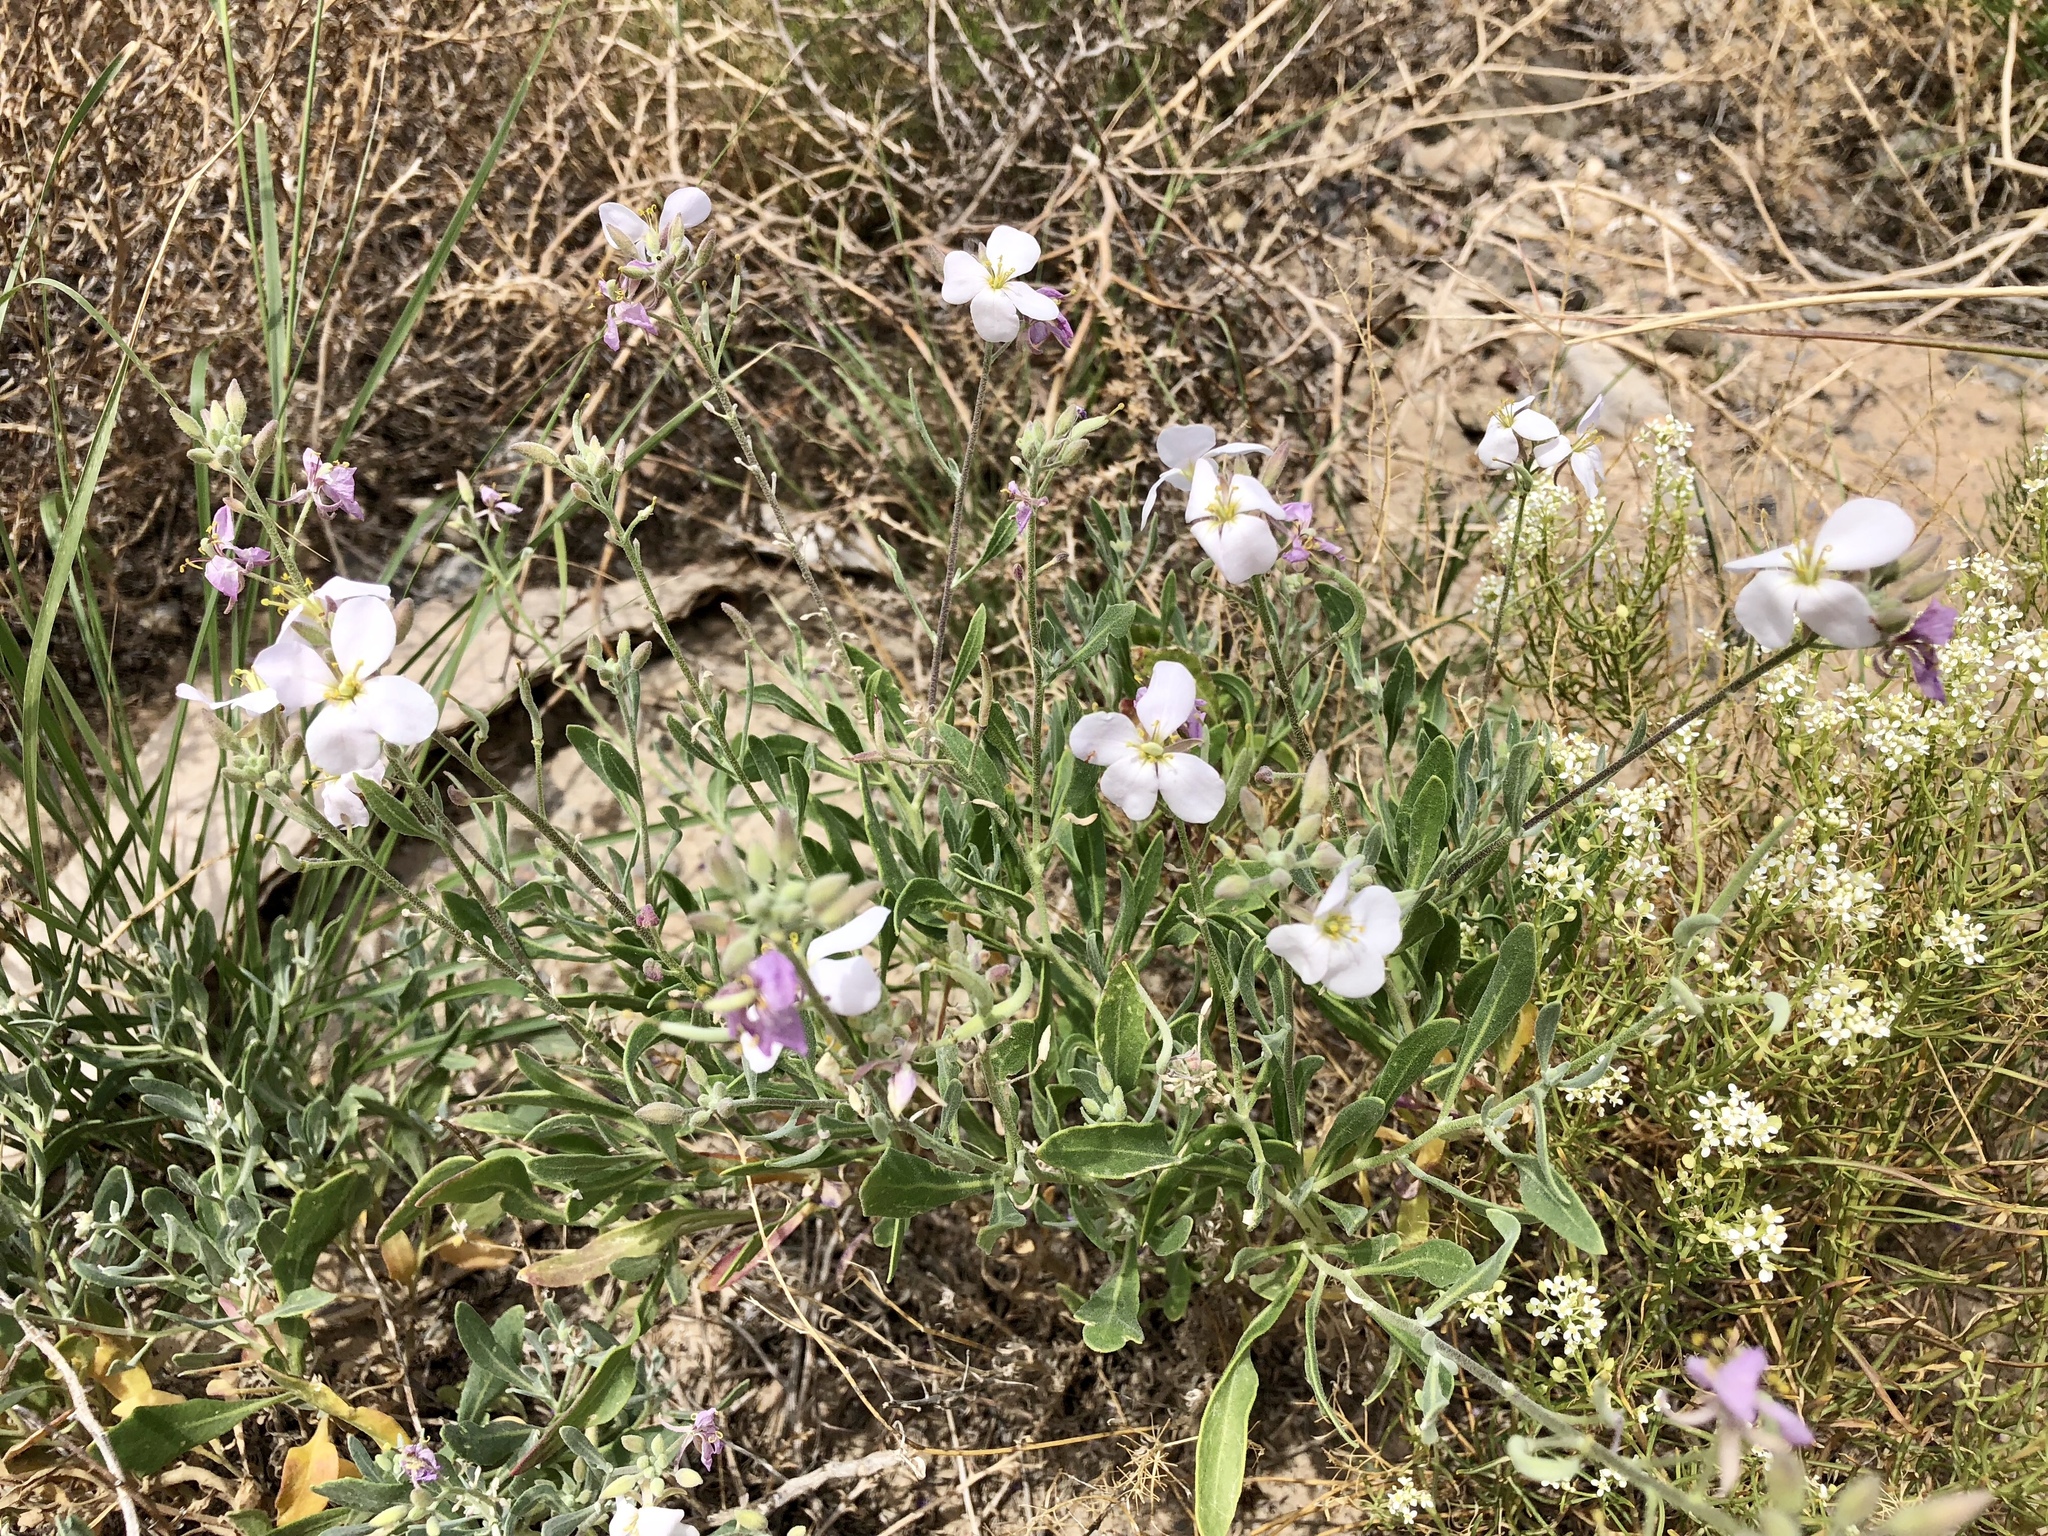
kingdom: Plantae
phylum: Tracheophyta
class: Magnoliopsida
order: Brassicales
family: Brassicaceae
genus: Nerisyrenia
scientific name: Nerisyrenia camporum
